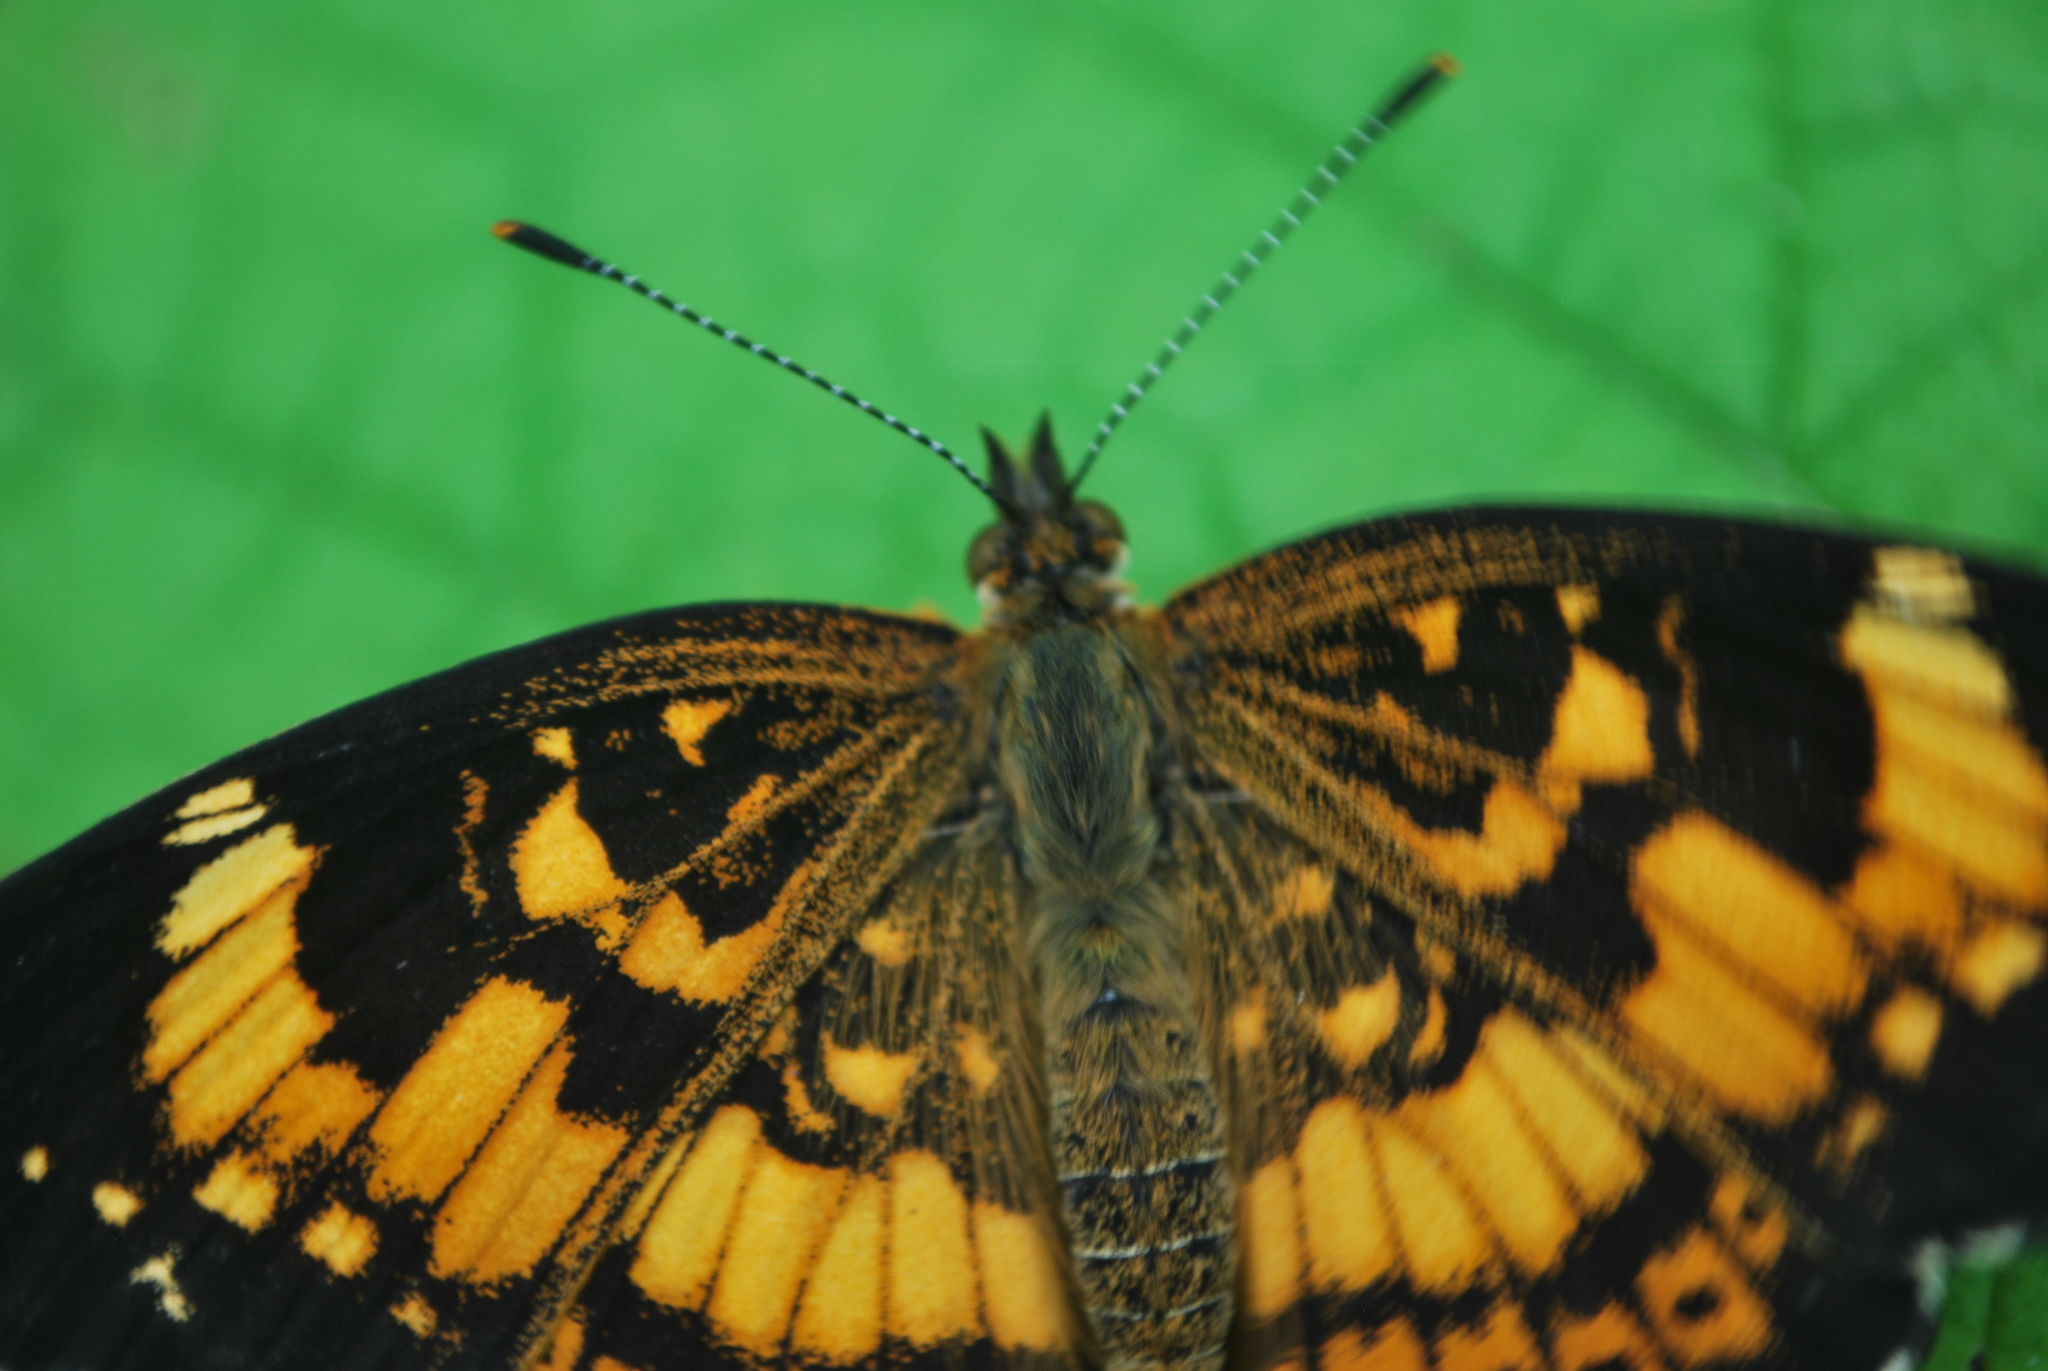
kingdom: Animalia
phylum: Arthropoda
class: Insecta
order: Lepidoptera
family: Nymphalidae
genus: Chlosyne
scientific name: Chlosyne nycteis
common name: Silvery checkerspot
